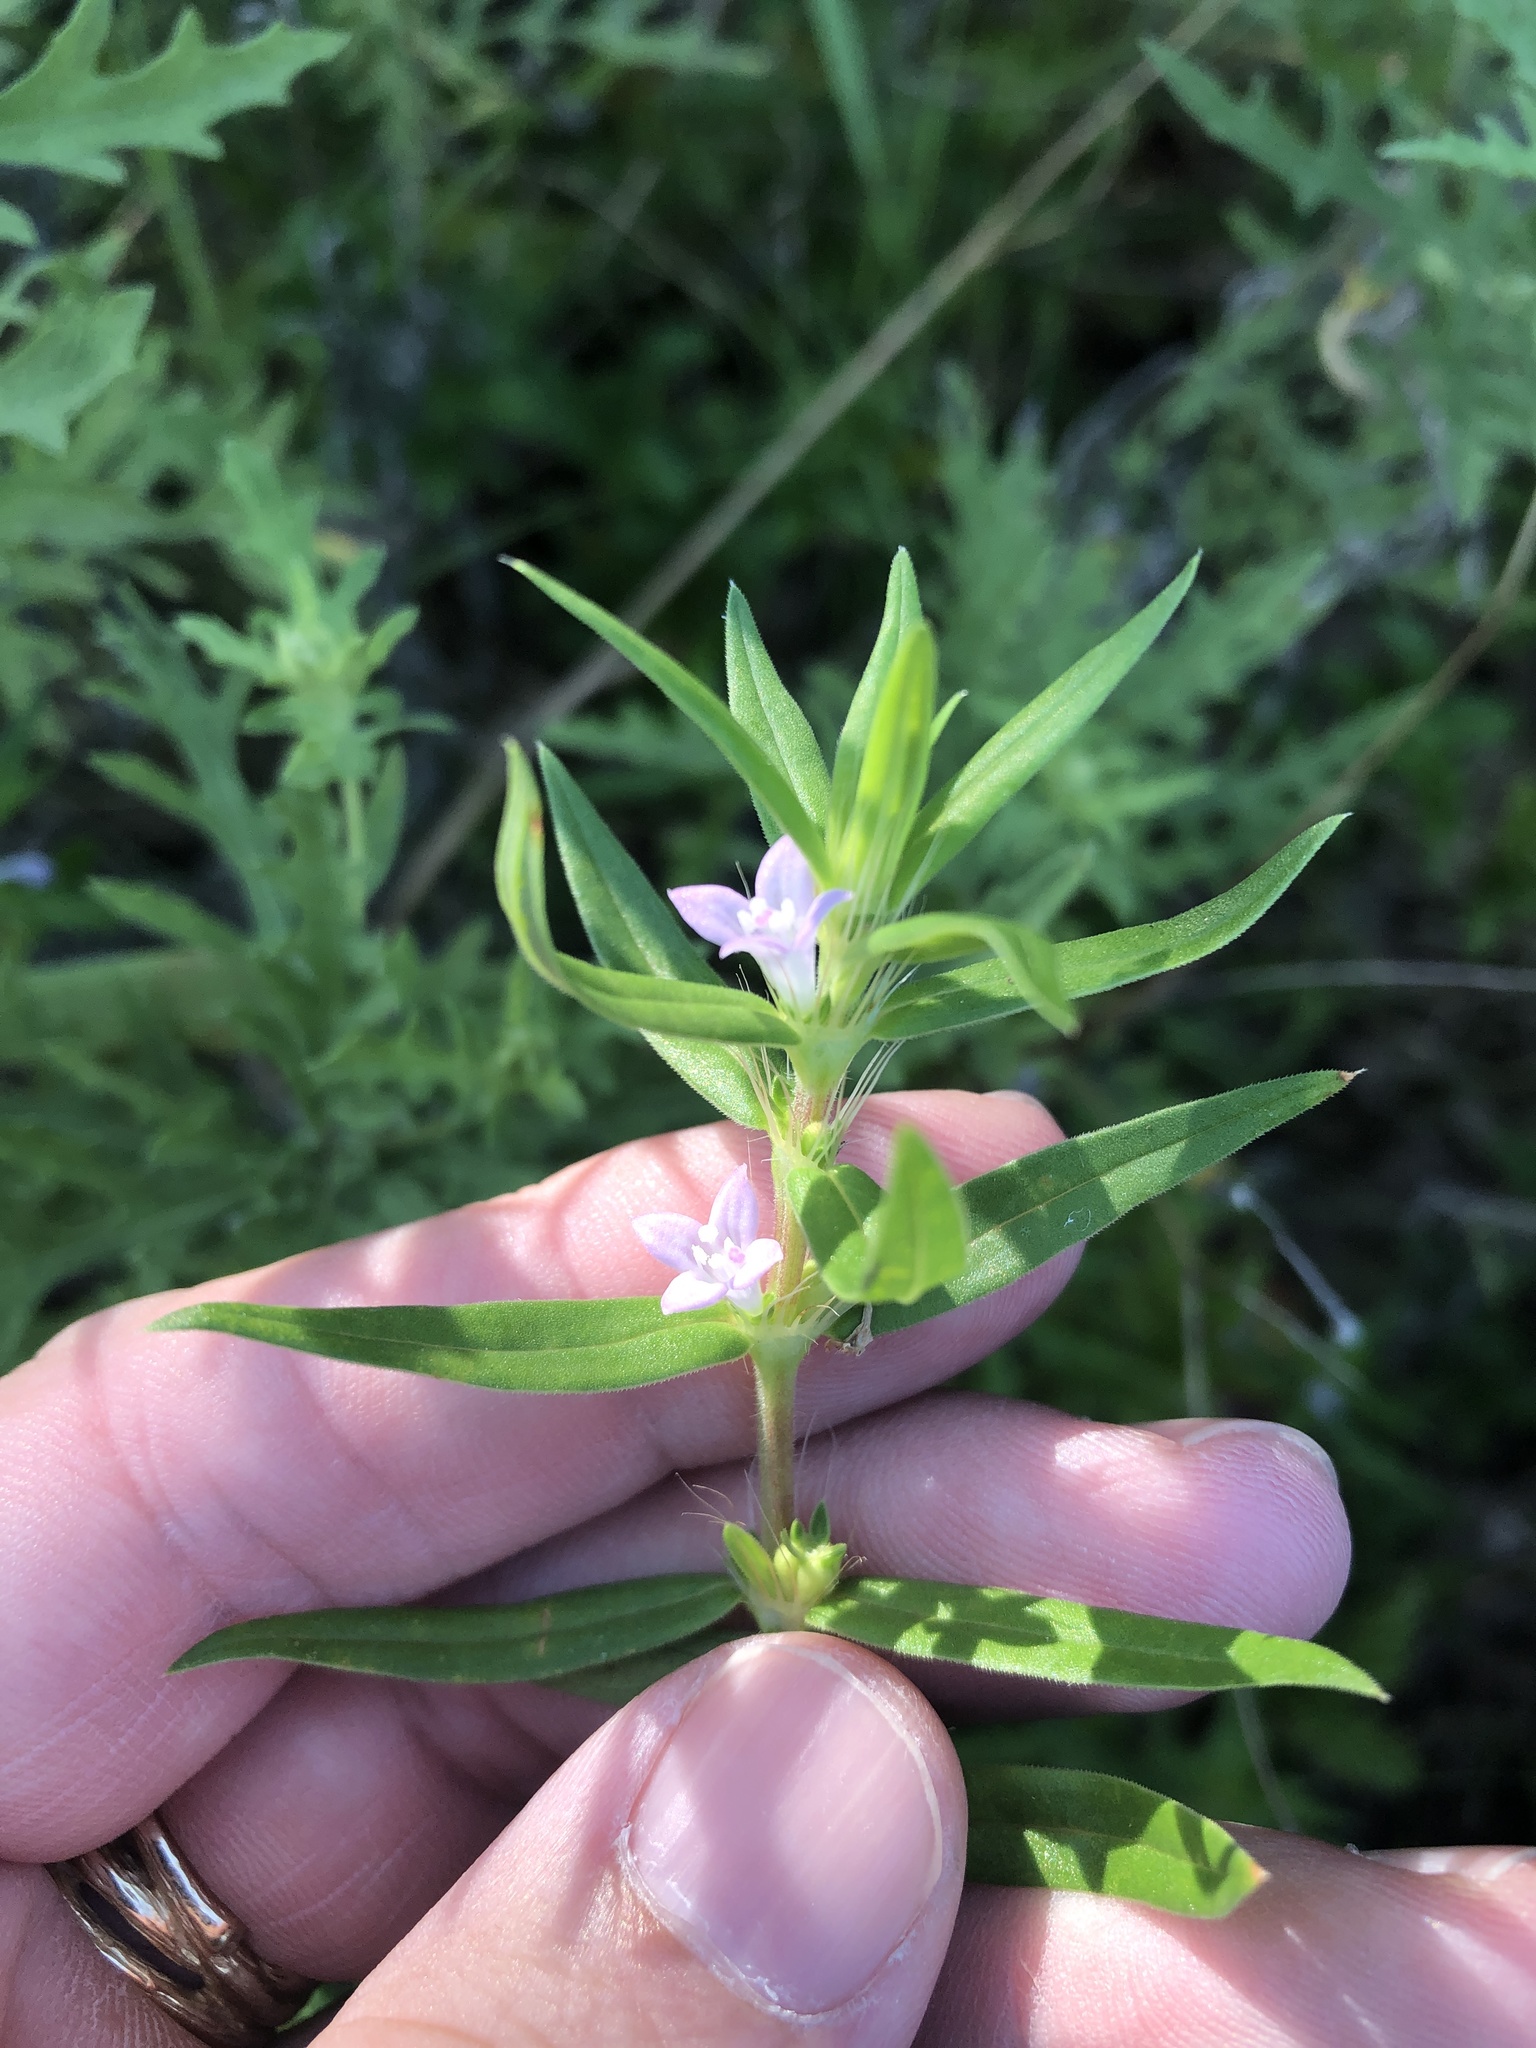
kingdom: Plantae
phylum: Tracheophyta
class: Magnoliopsida
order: Gentianales
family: Rubiaceae
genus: Hexasepalum
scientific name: Hexasepalum teres
